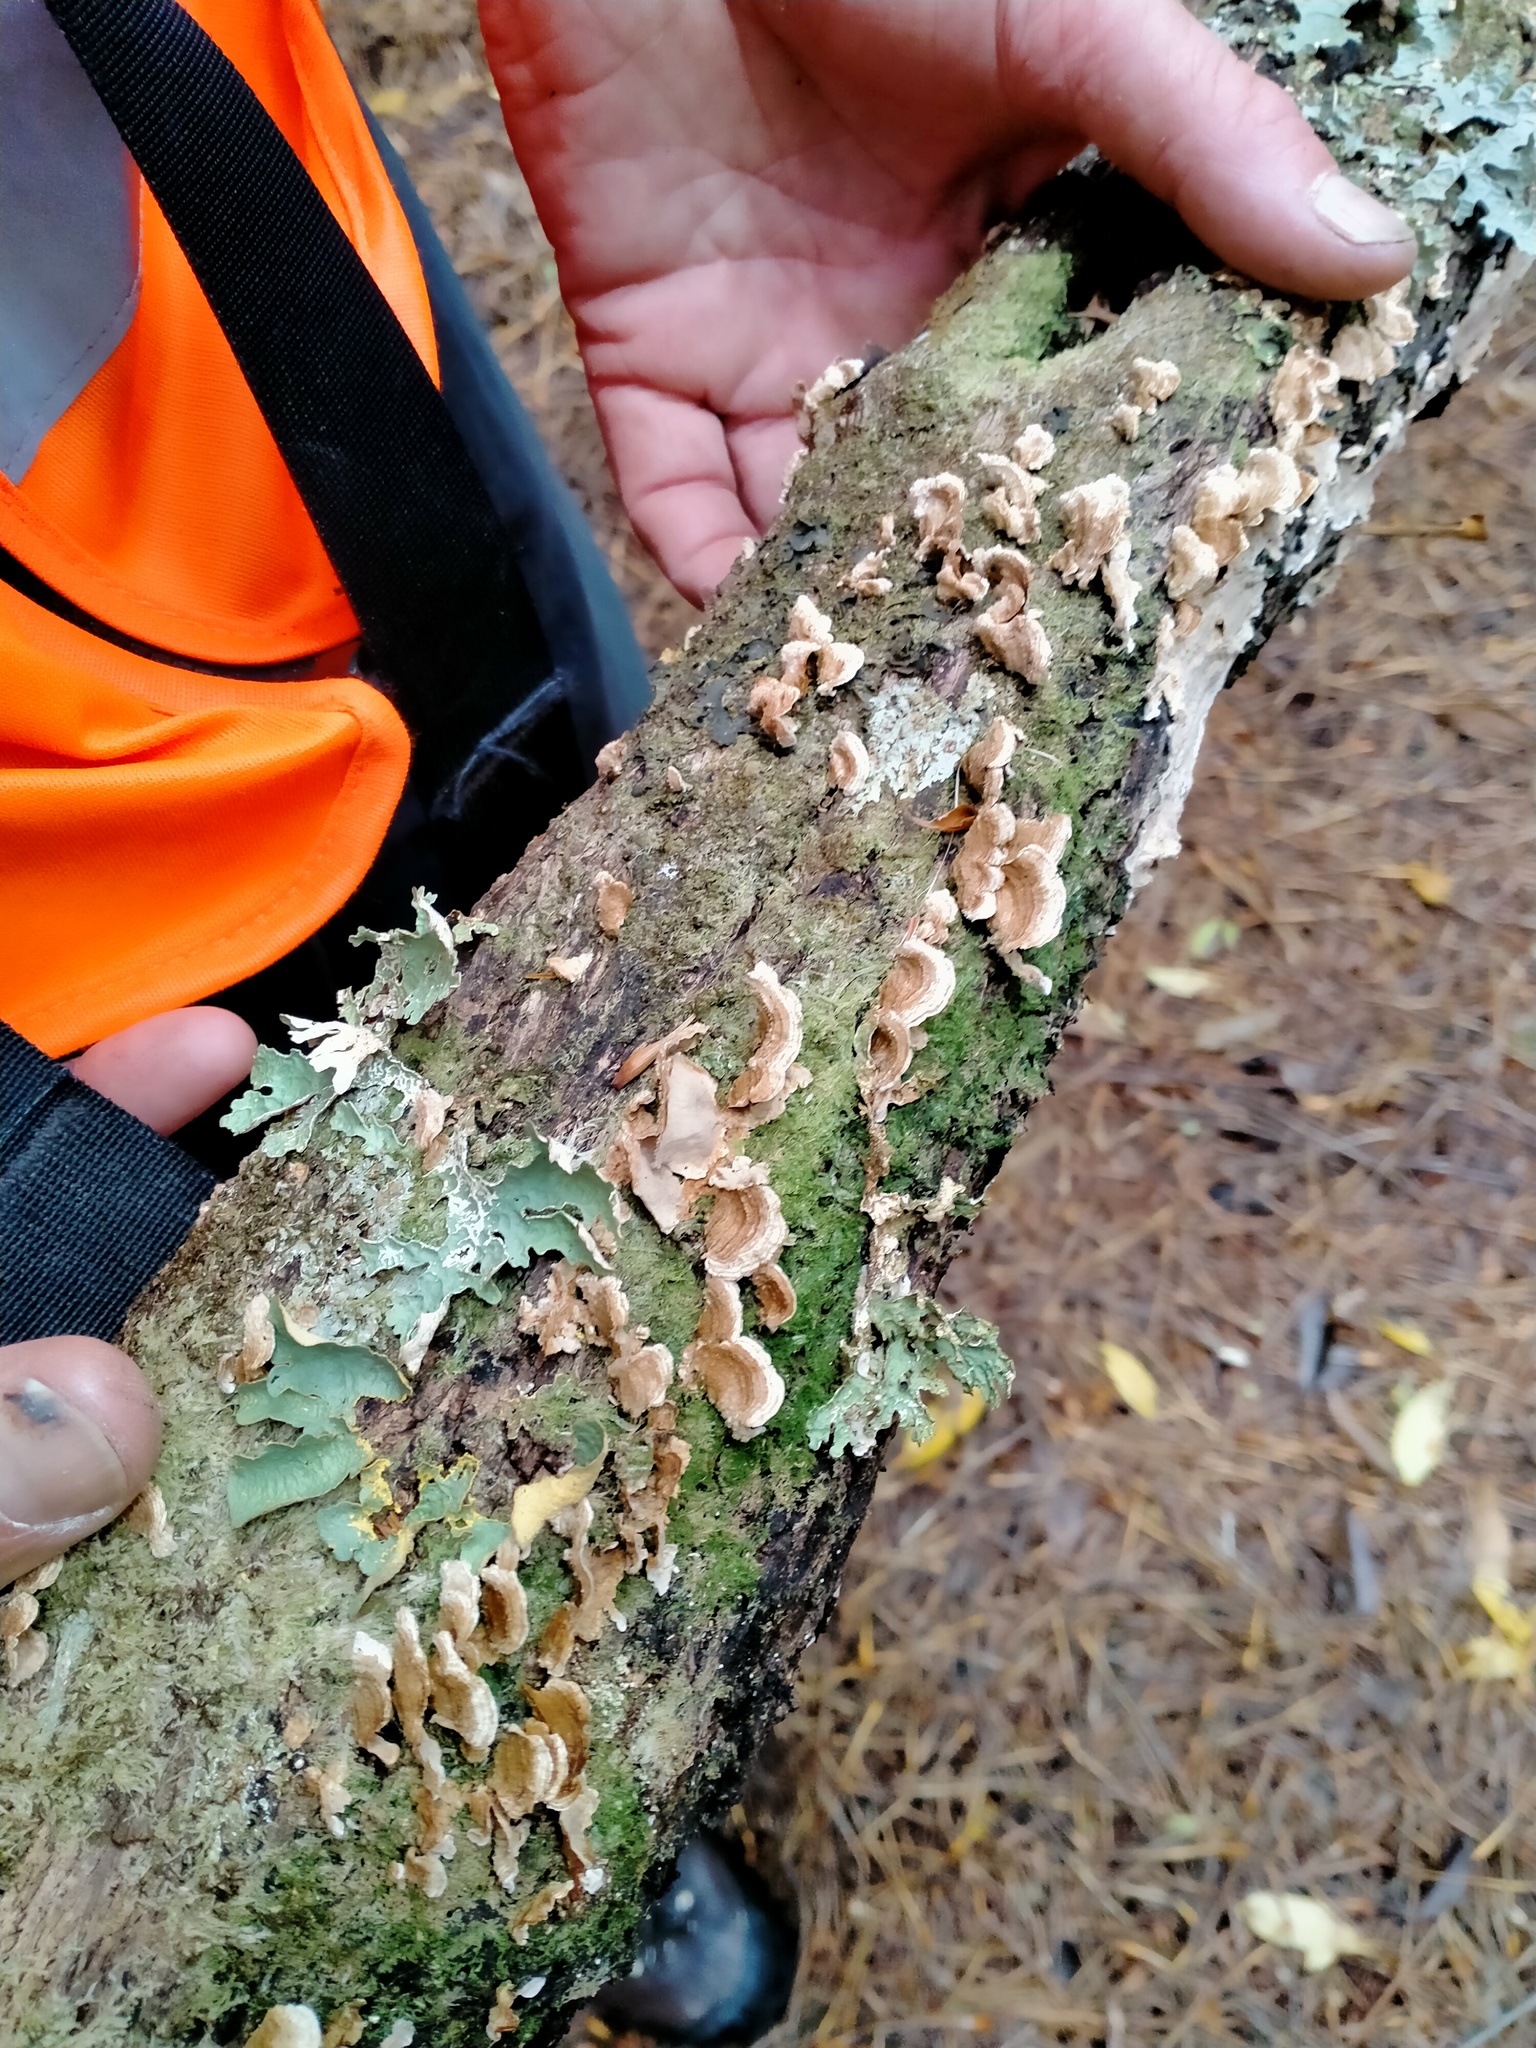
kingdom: Fungi
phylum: Basidiomycota
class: Agaricomycetes
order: Russulales
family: Stereaceae
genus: Stereum
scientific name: Stereum vellereum
